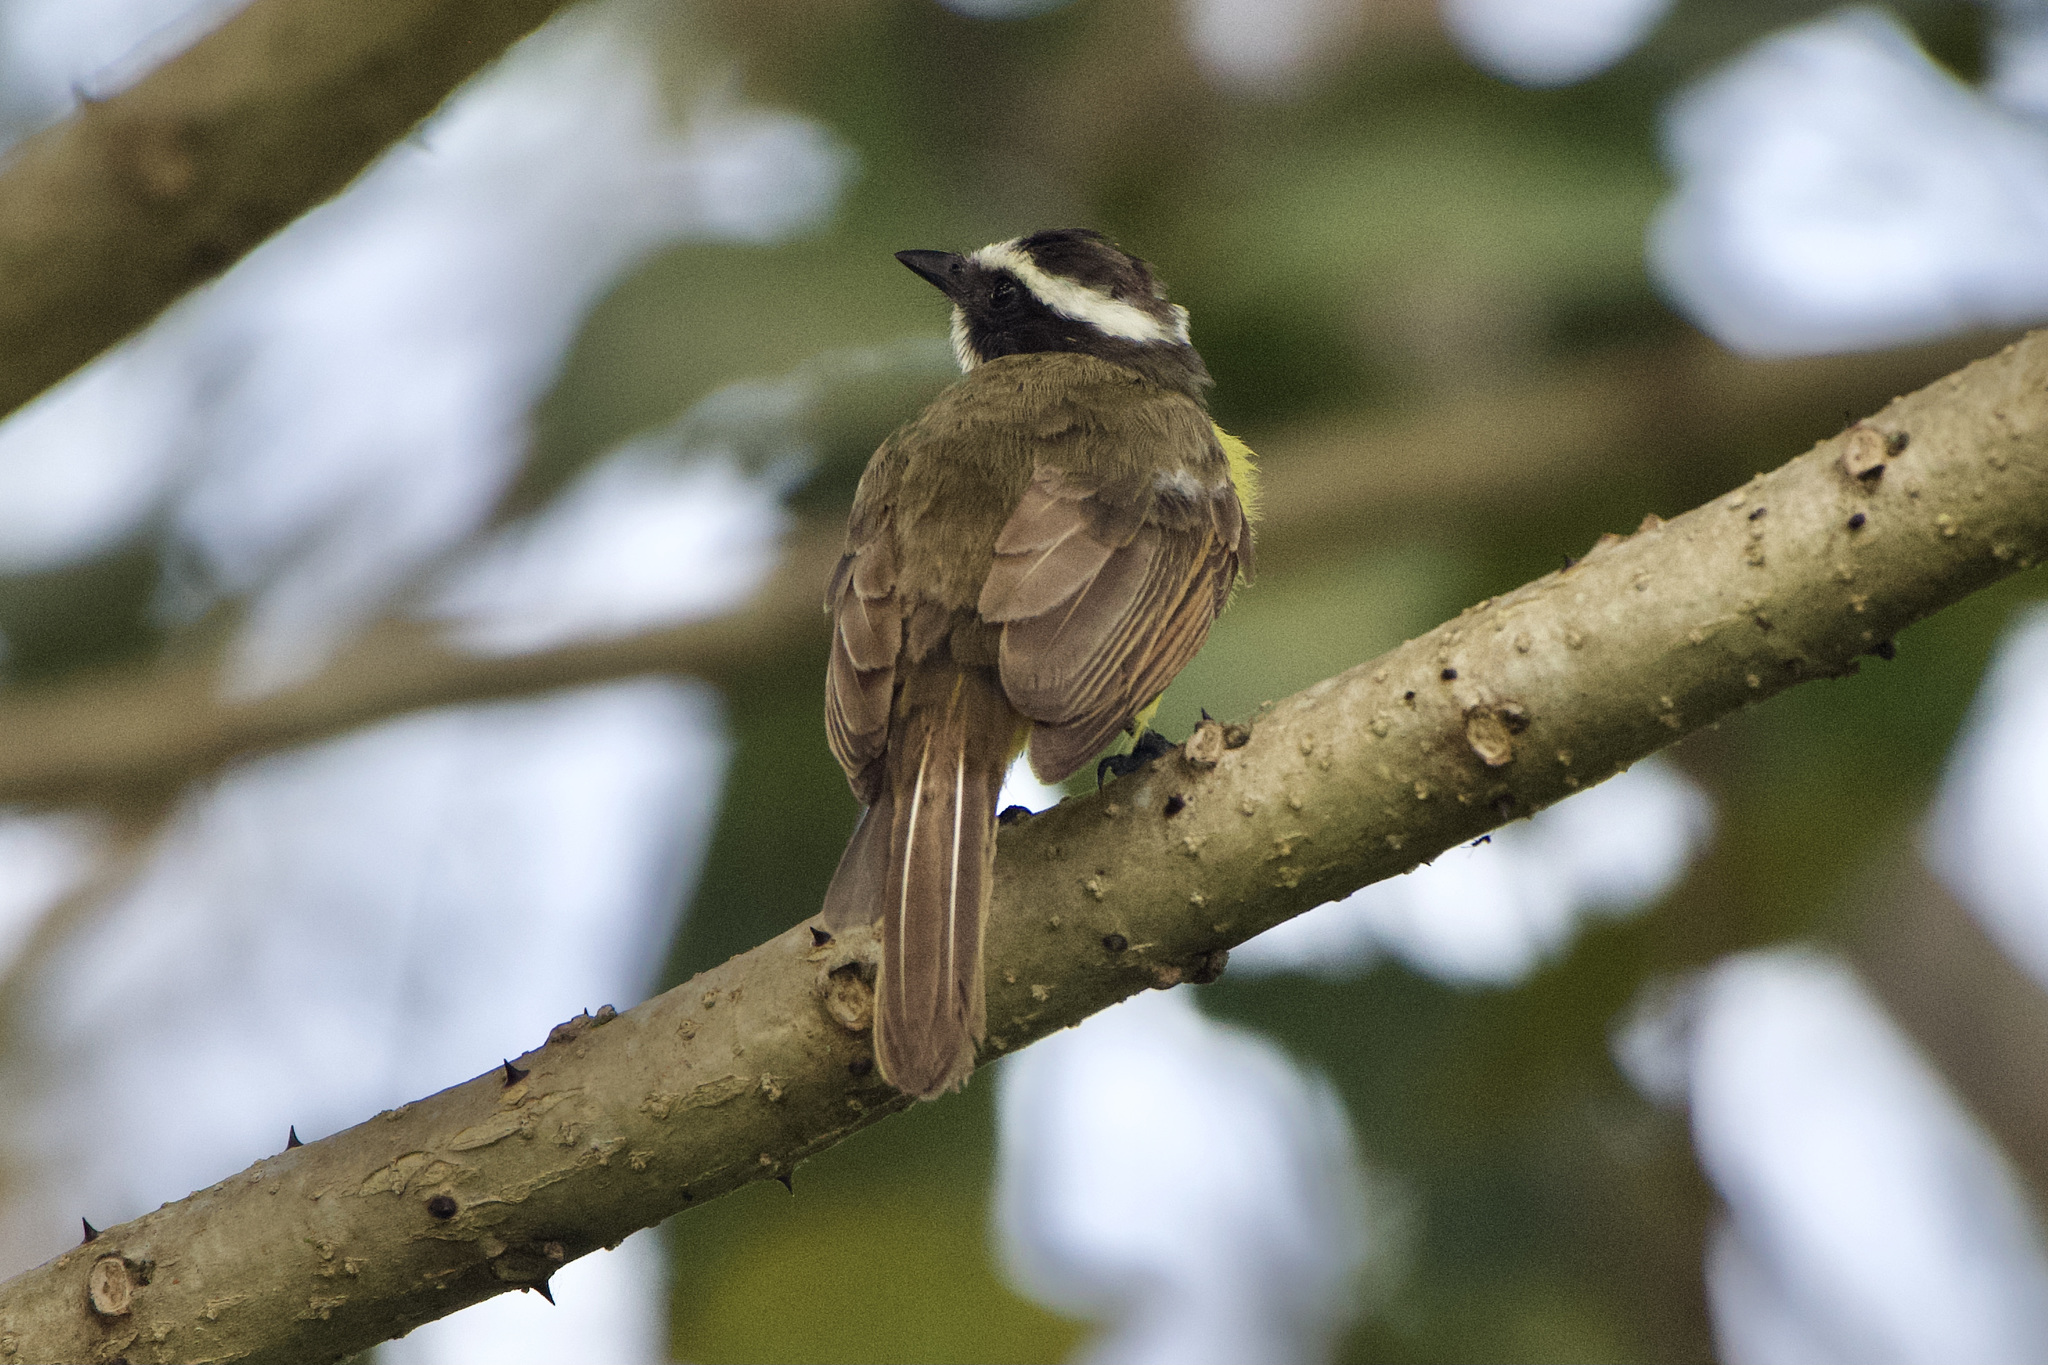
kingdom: Animalia
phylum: Chordata
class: Aves
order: Passeriformes
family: Tyrannidae
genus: Myiozetetes
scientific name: Myiozetetes cayanensis
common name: Rusty-margined flycatcher
